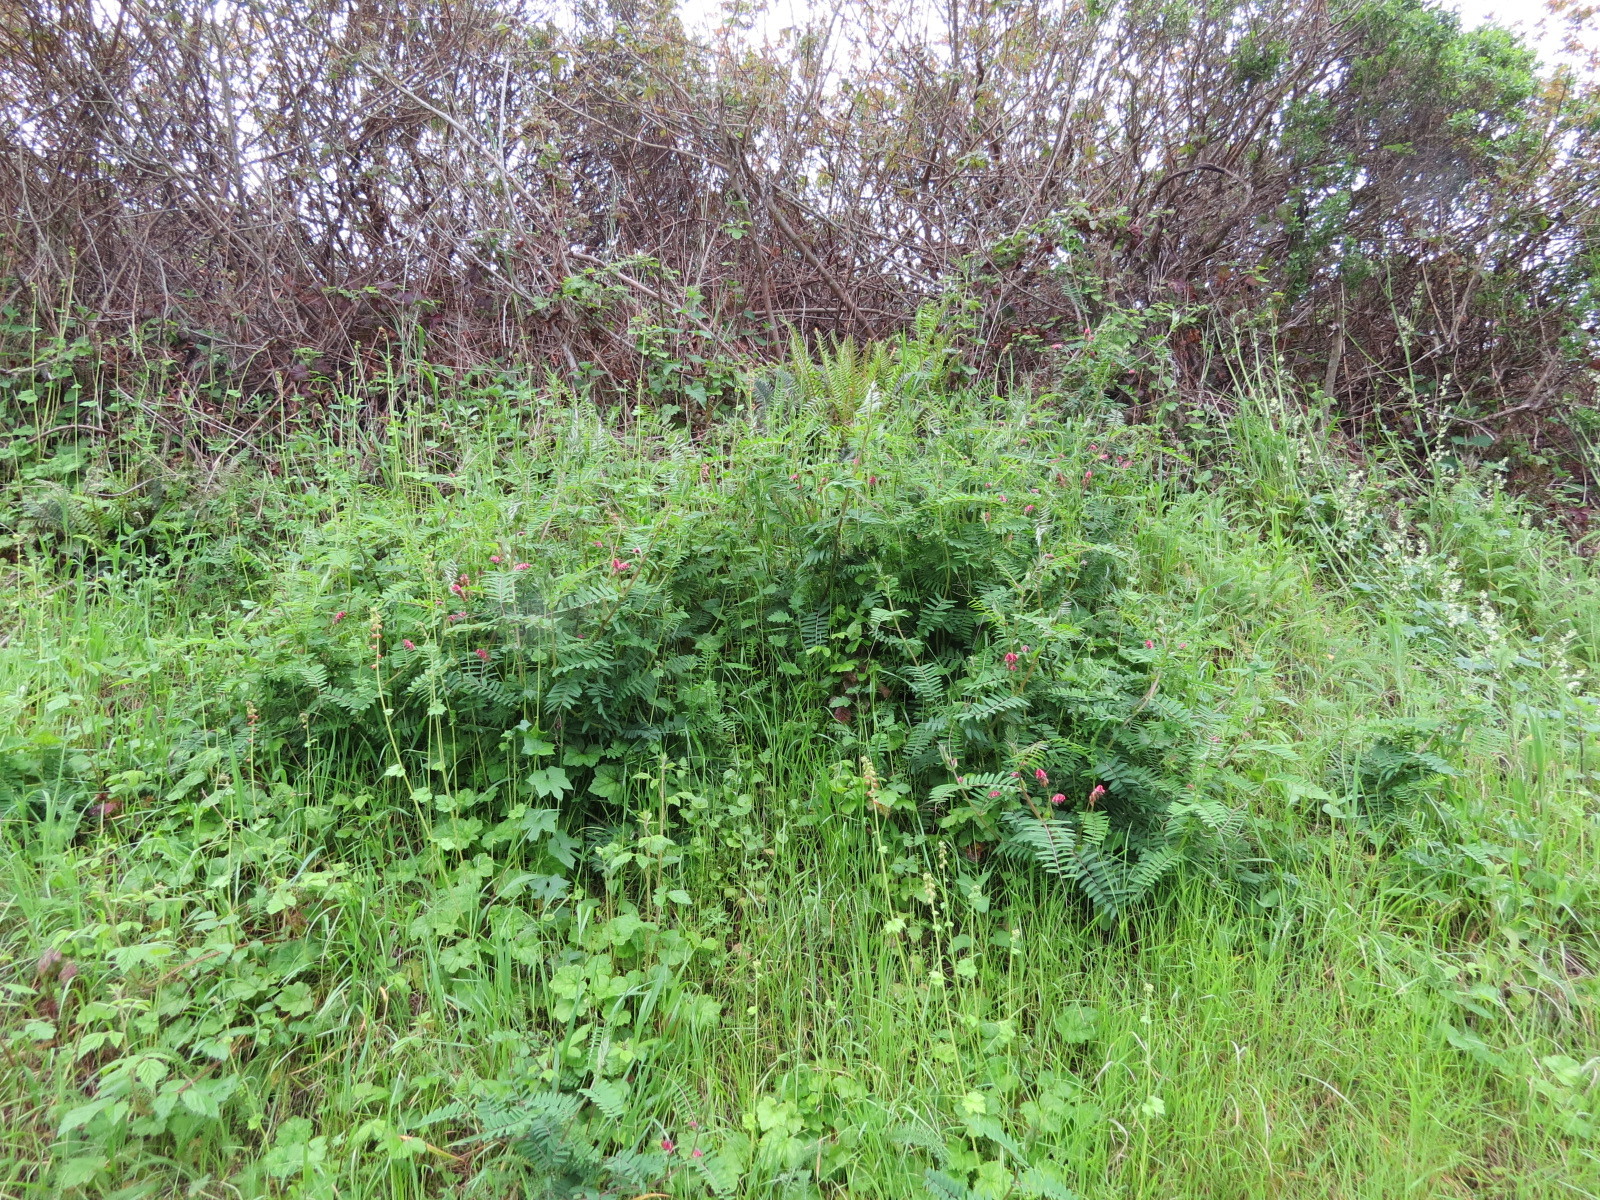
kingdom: Plantae
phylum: Tracheophyta
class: Magnoliopsida
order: Fabales
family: Fabaceae
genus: Vicia
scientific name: Vicia
